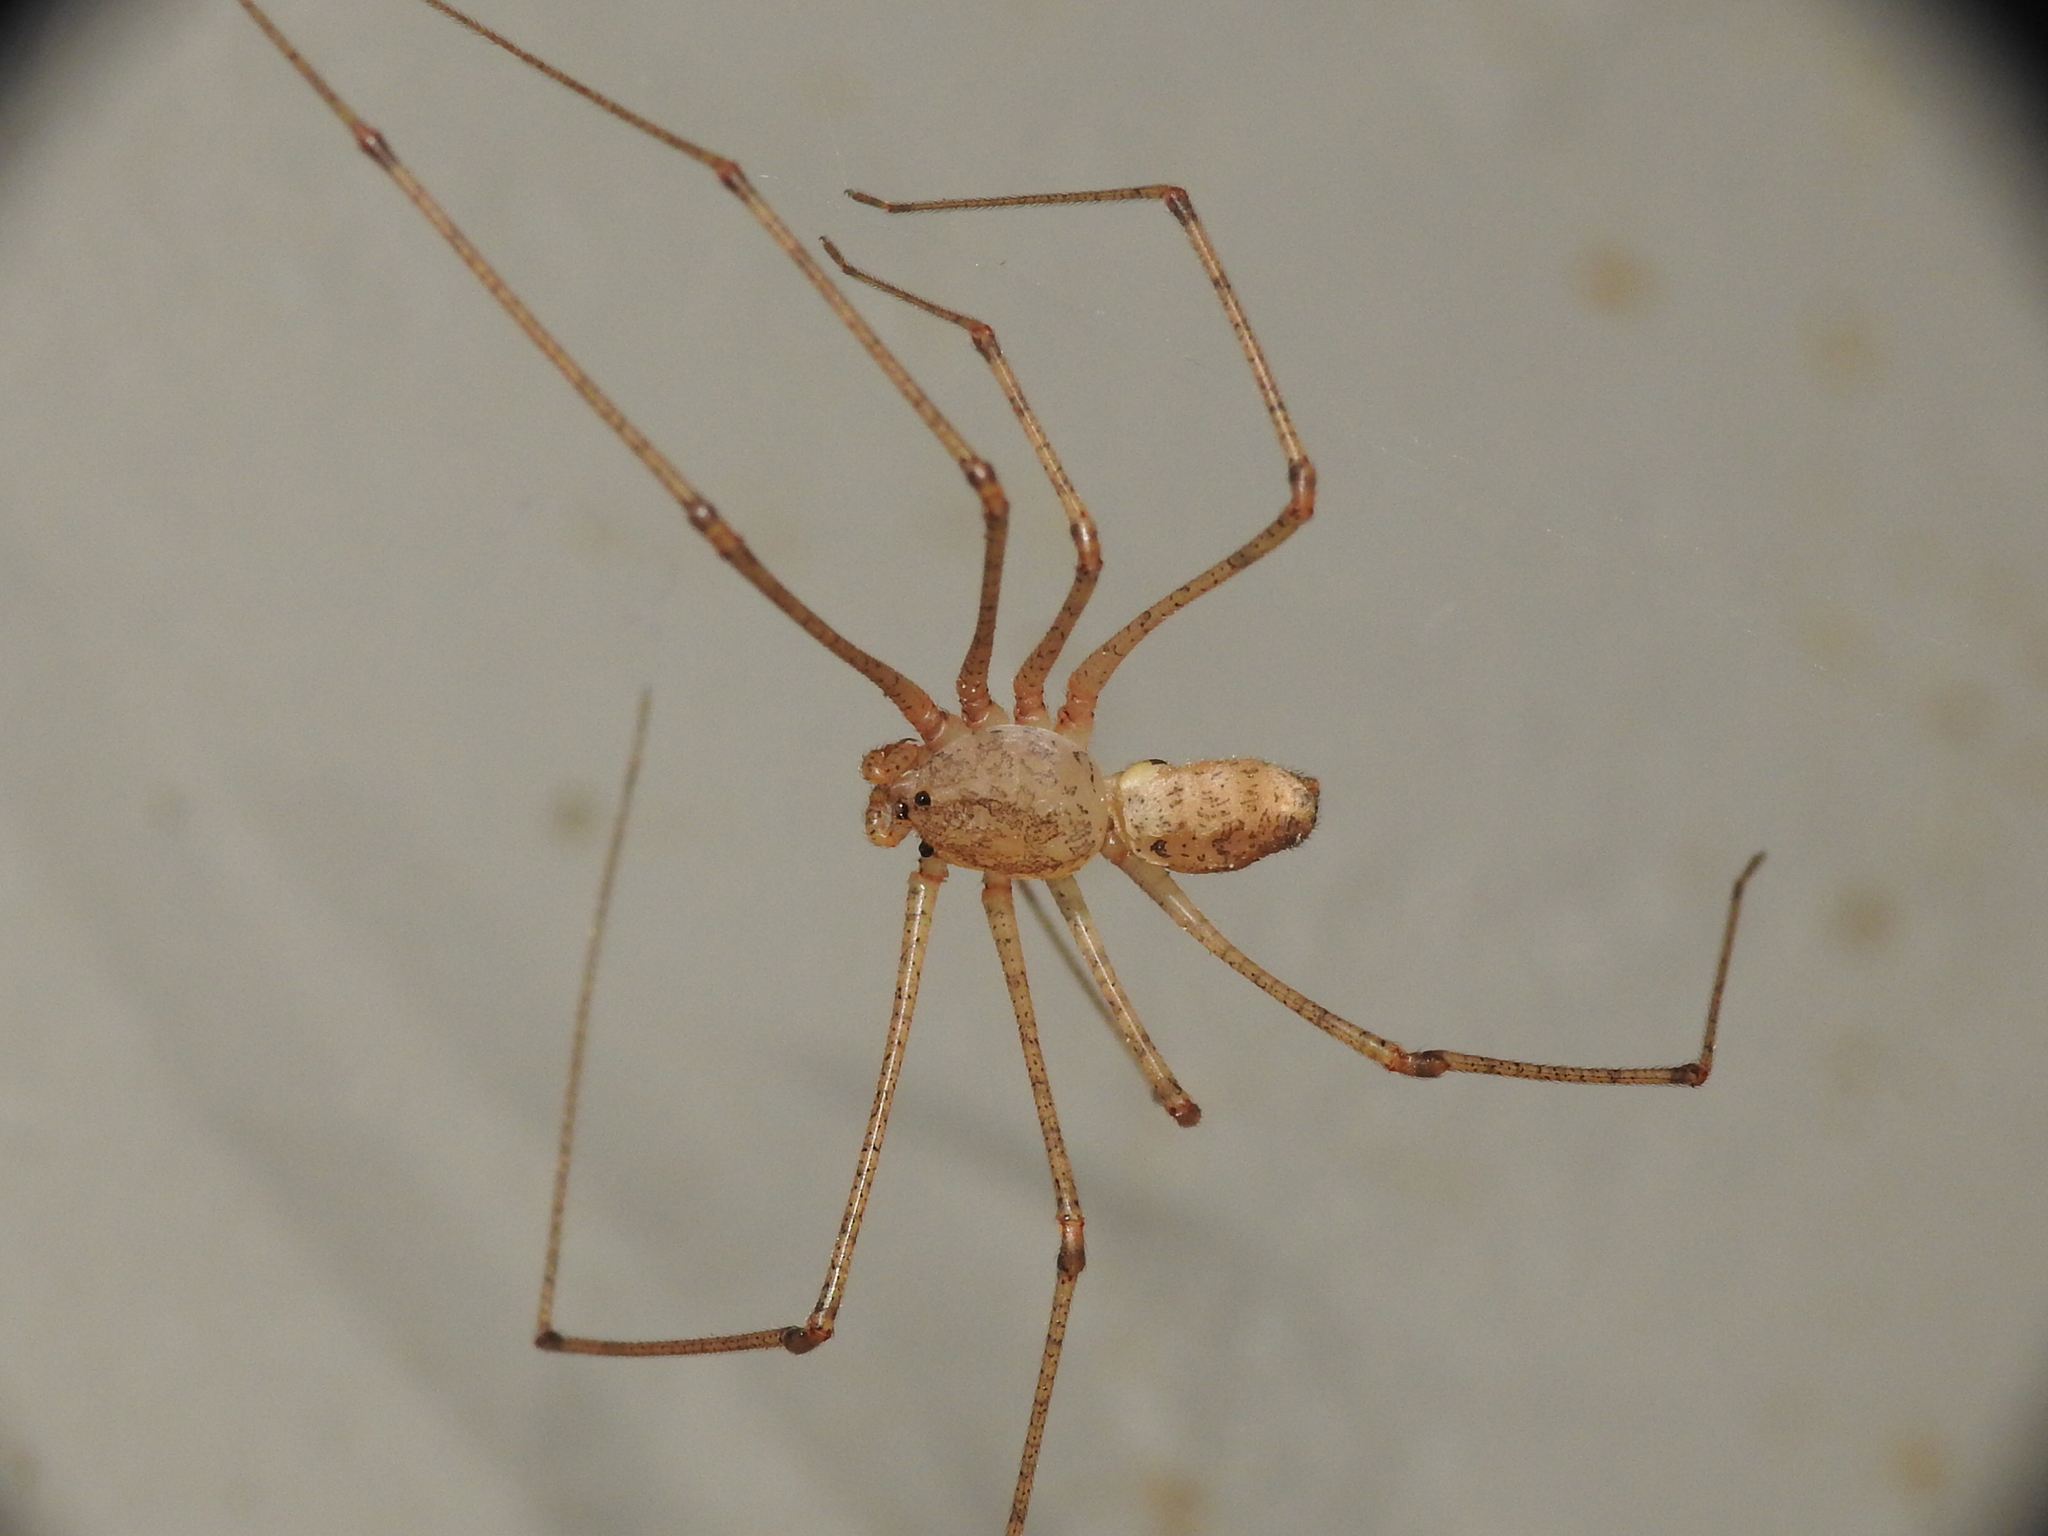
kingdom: Animalia
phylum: Arthropoda
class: Arachnida
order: Araneae
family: Scytodidae
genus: Scytodes
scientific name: Scytodes atlacoya
